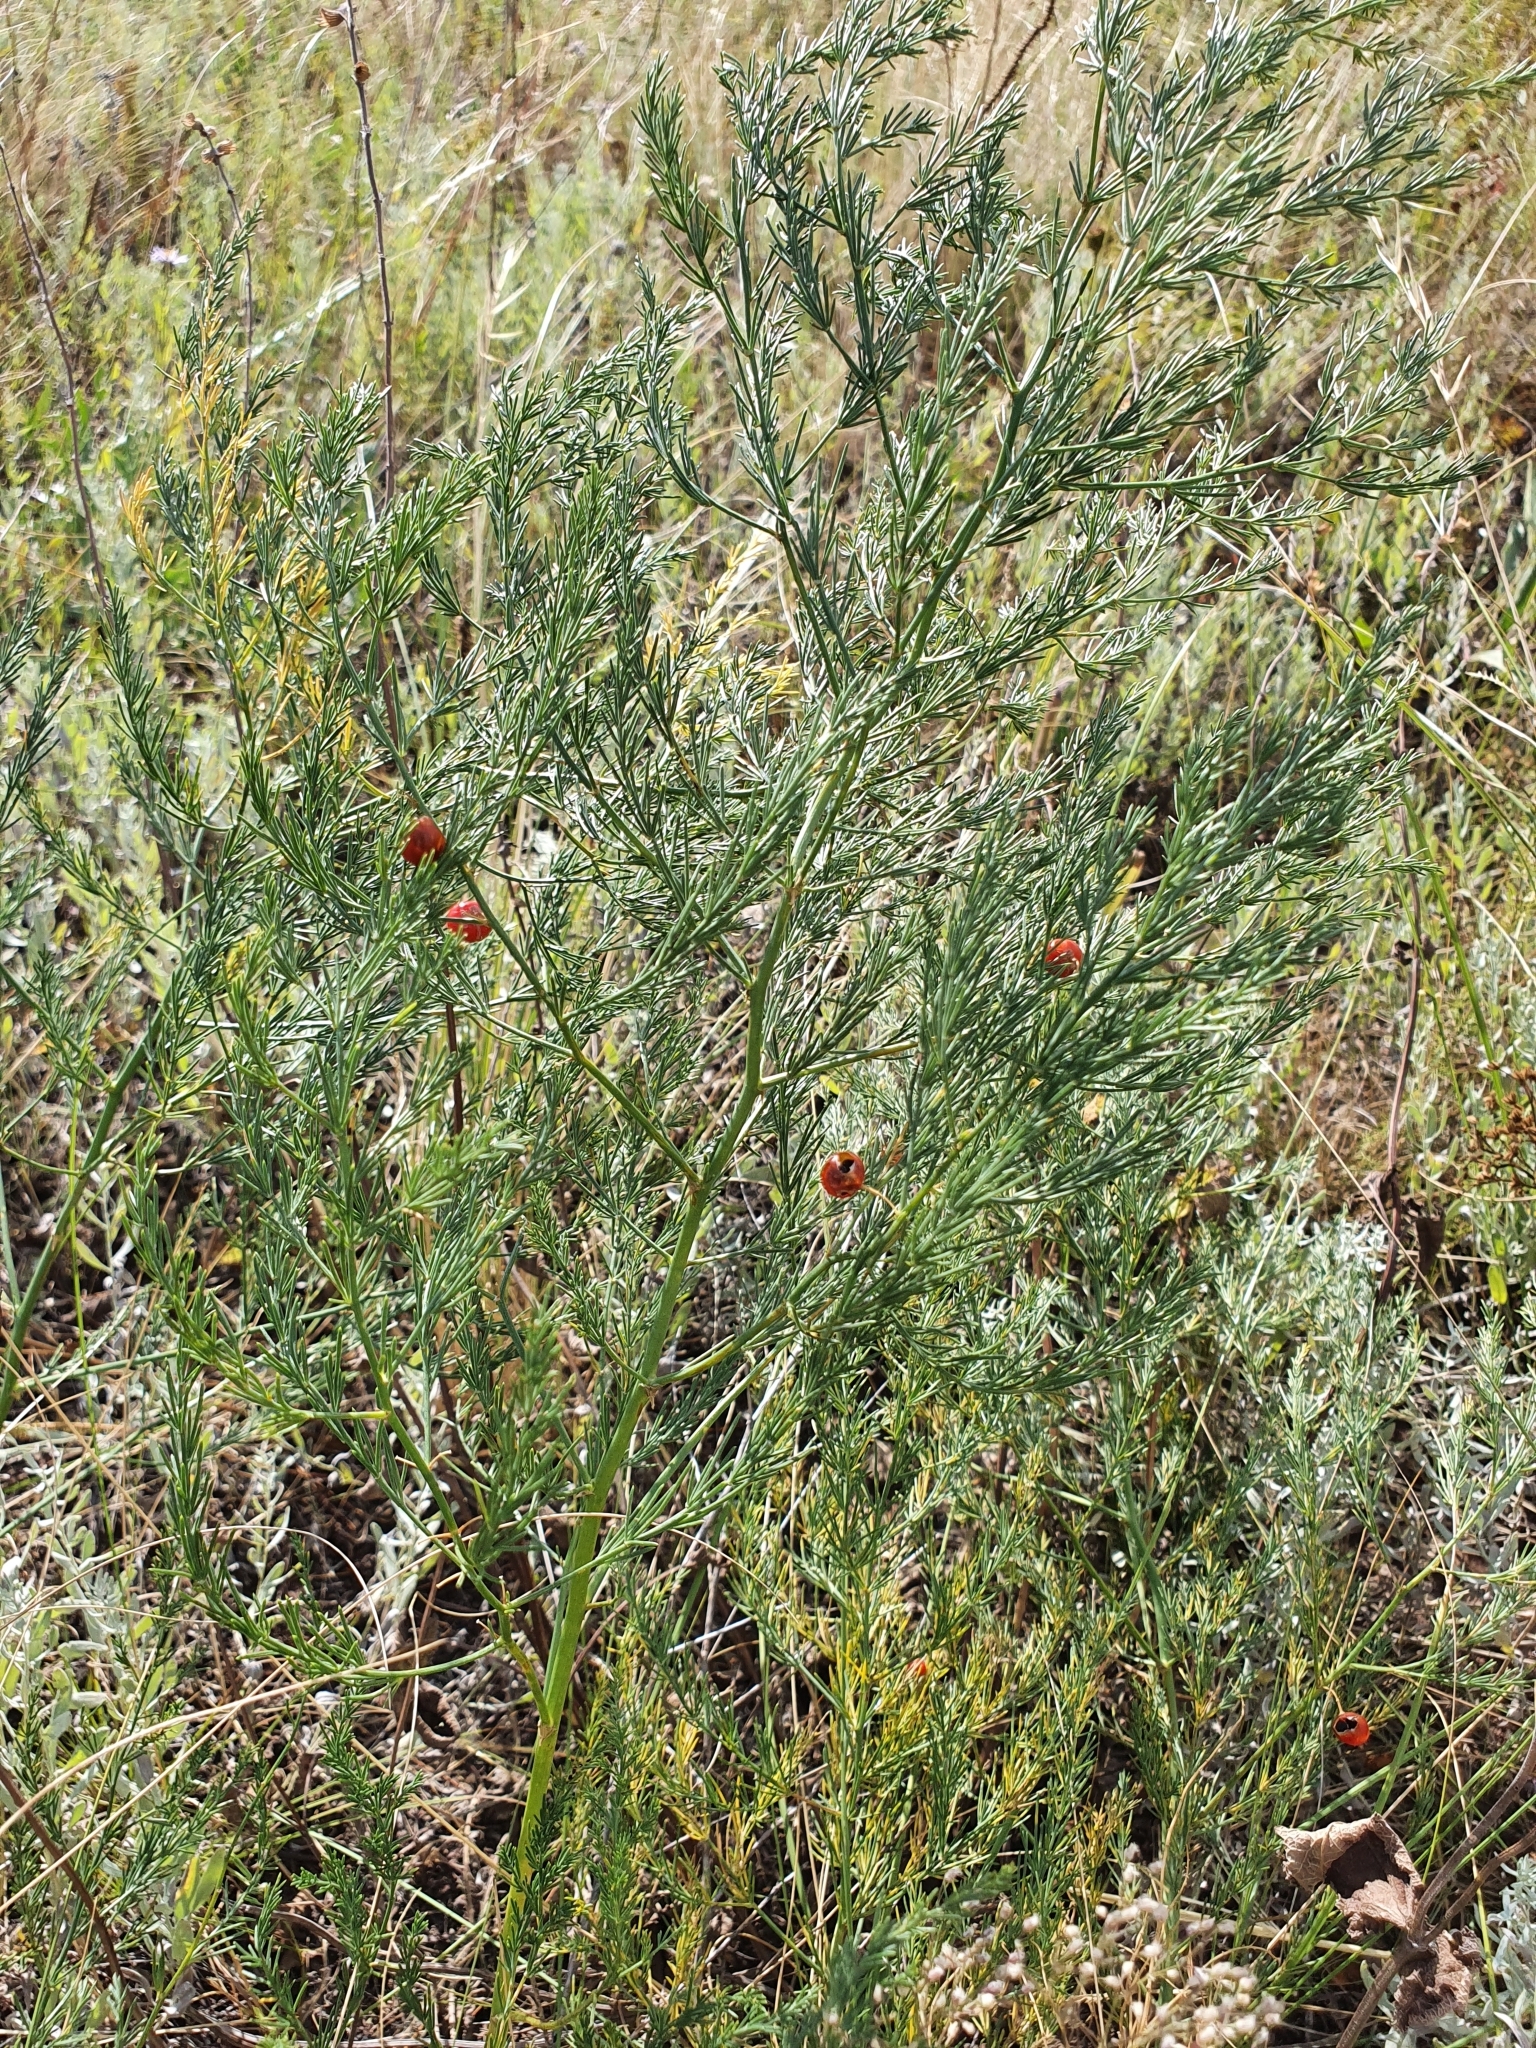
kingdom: Plantae
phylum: Tracheophyta
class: Liliopsida
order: Asparagales
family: Asparagaceae
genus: Asparagus
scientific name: Asparagus officinalis
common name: Garden asparagus
